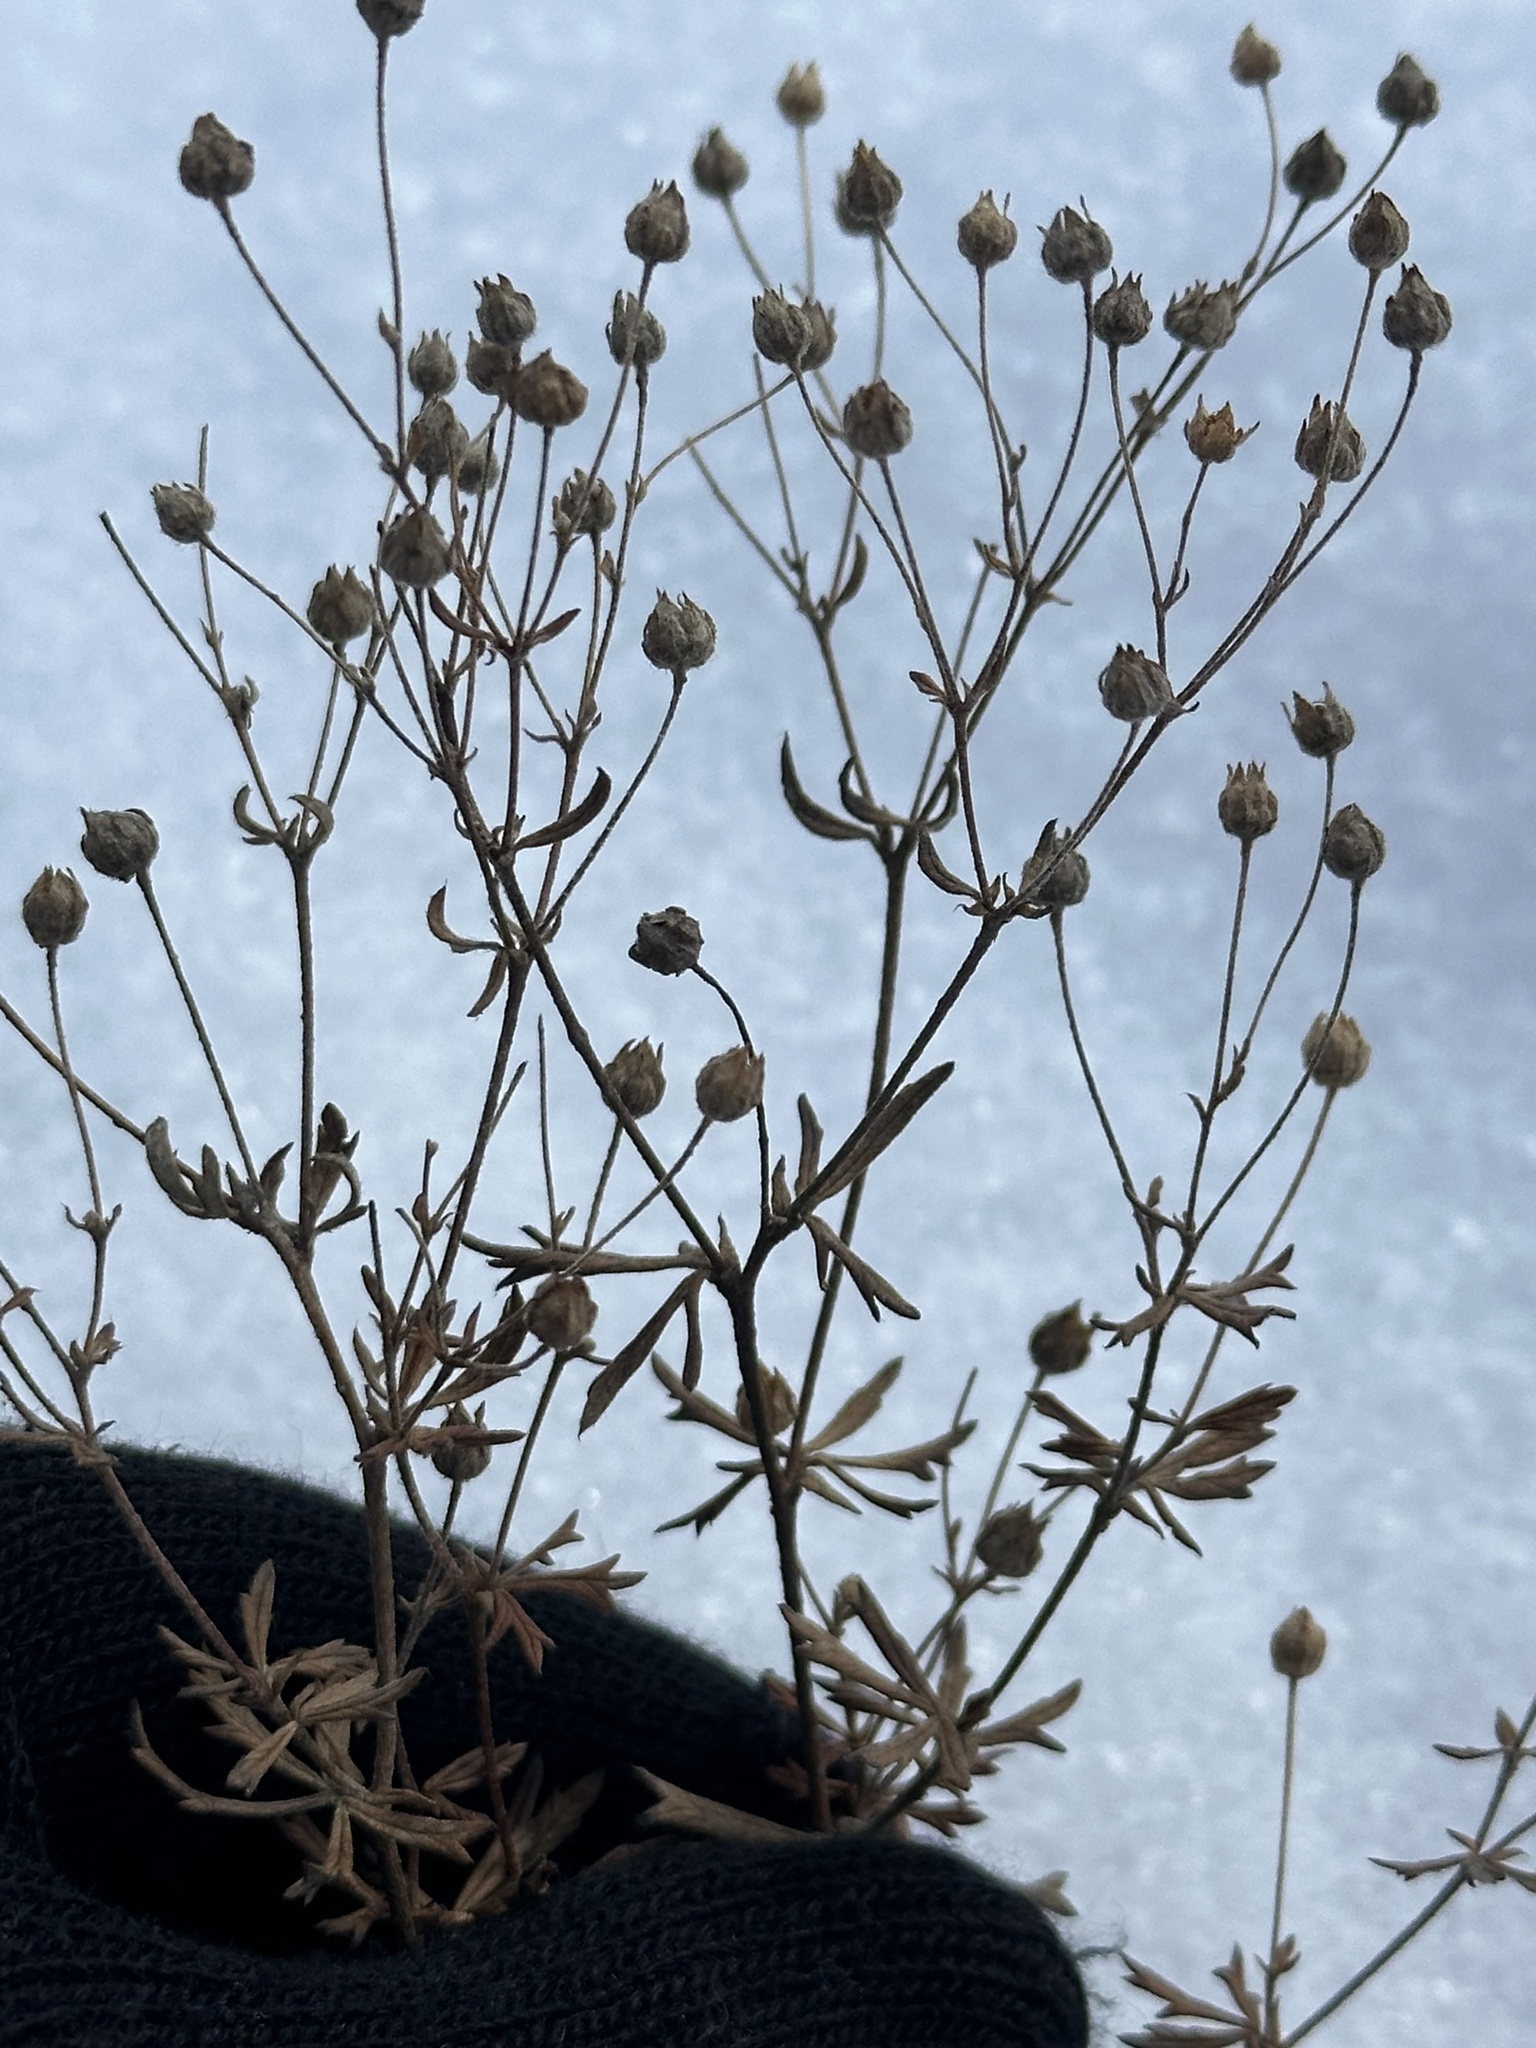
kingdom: Plantae
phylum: Tracheophyta
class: Magnoliopsida
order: Rosales
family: Rosaceae
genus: Potentilla
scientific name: Potentilla argentea
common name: Hoary cinquefoil
